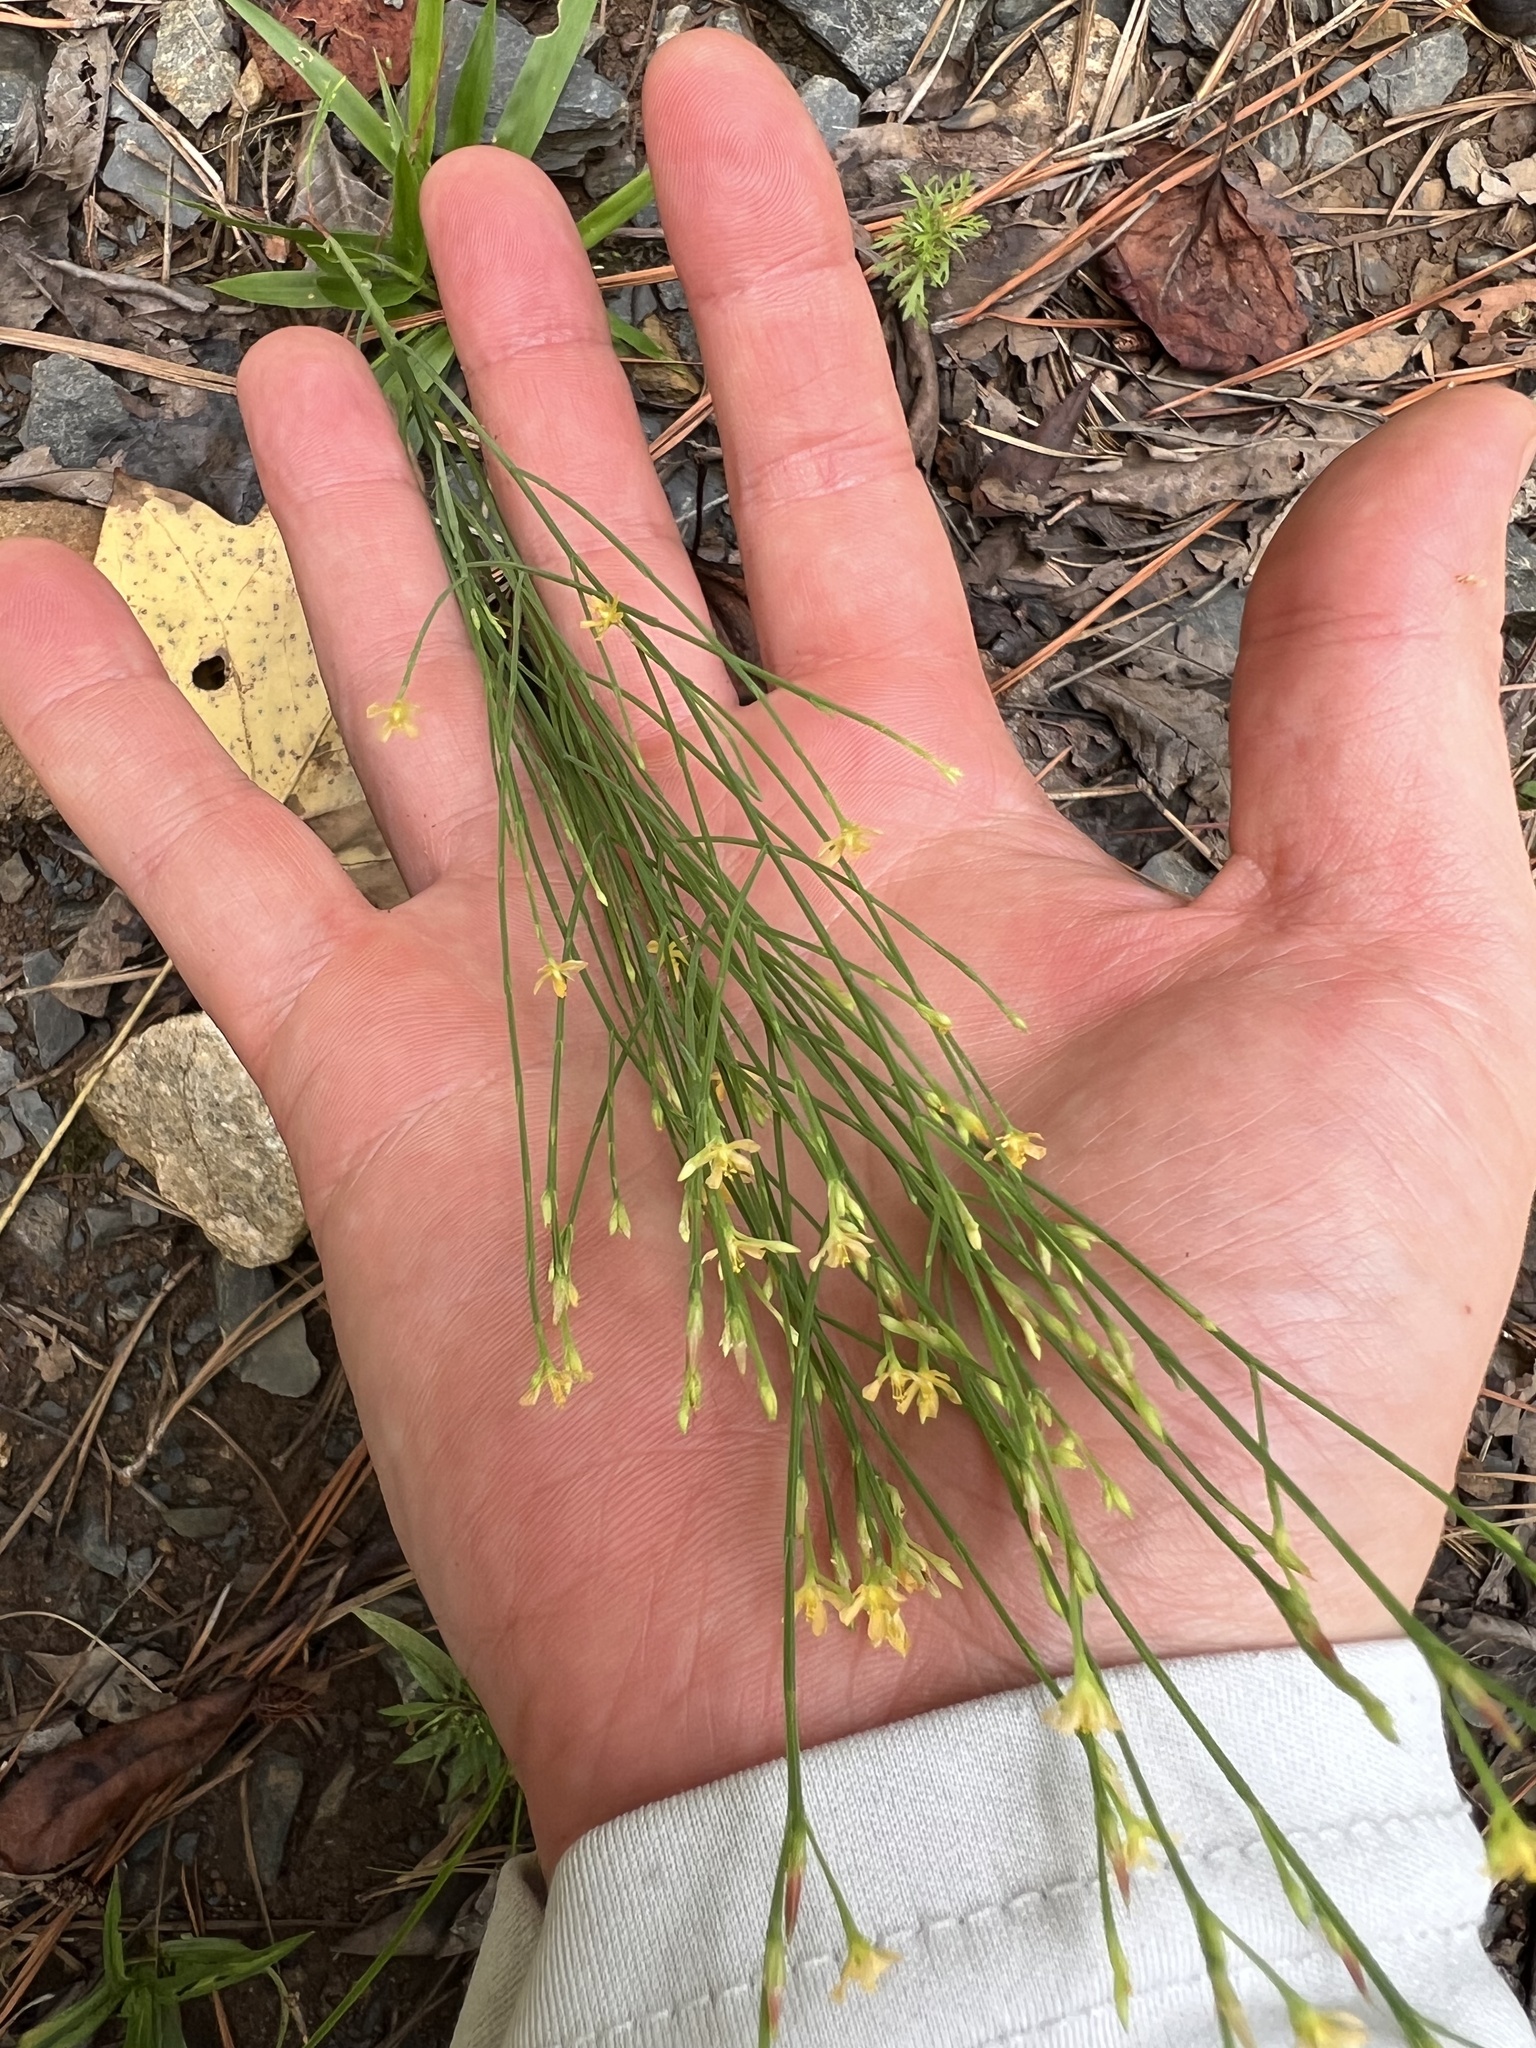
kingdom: Plantae
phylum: Tracheophyta
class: Magnoliopsida
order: Malpighiales
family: Hypericaceae
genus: Hypericum
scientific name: Hypericum gentianoides
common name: Gentian-leaved st. john's-wort
